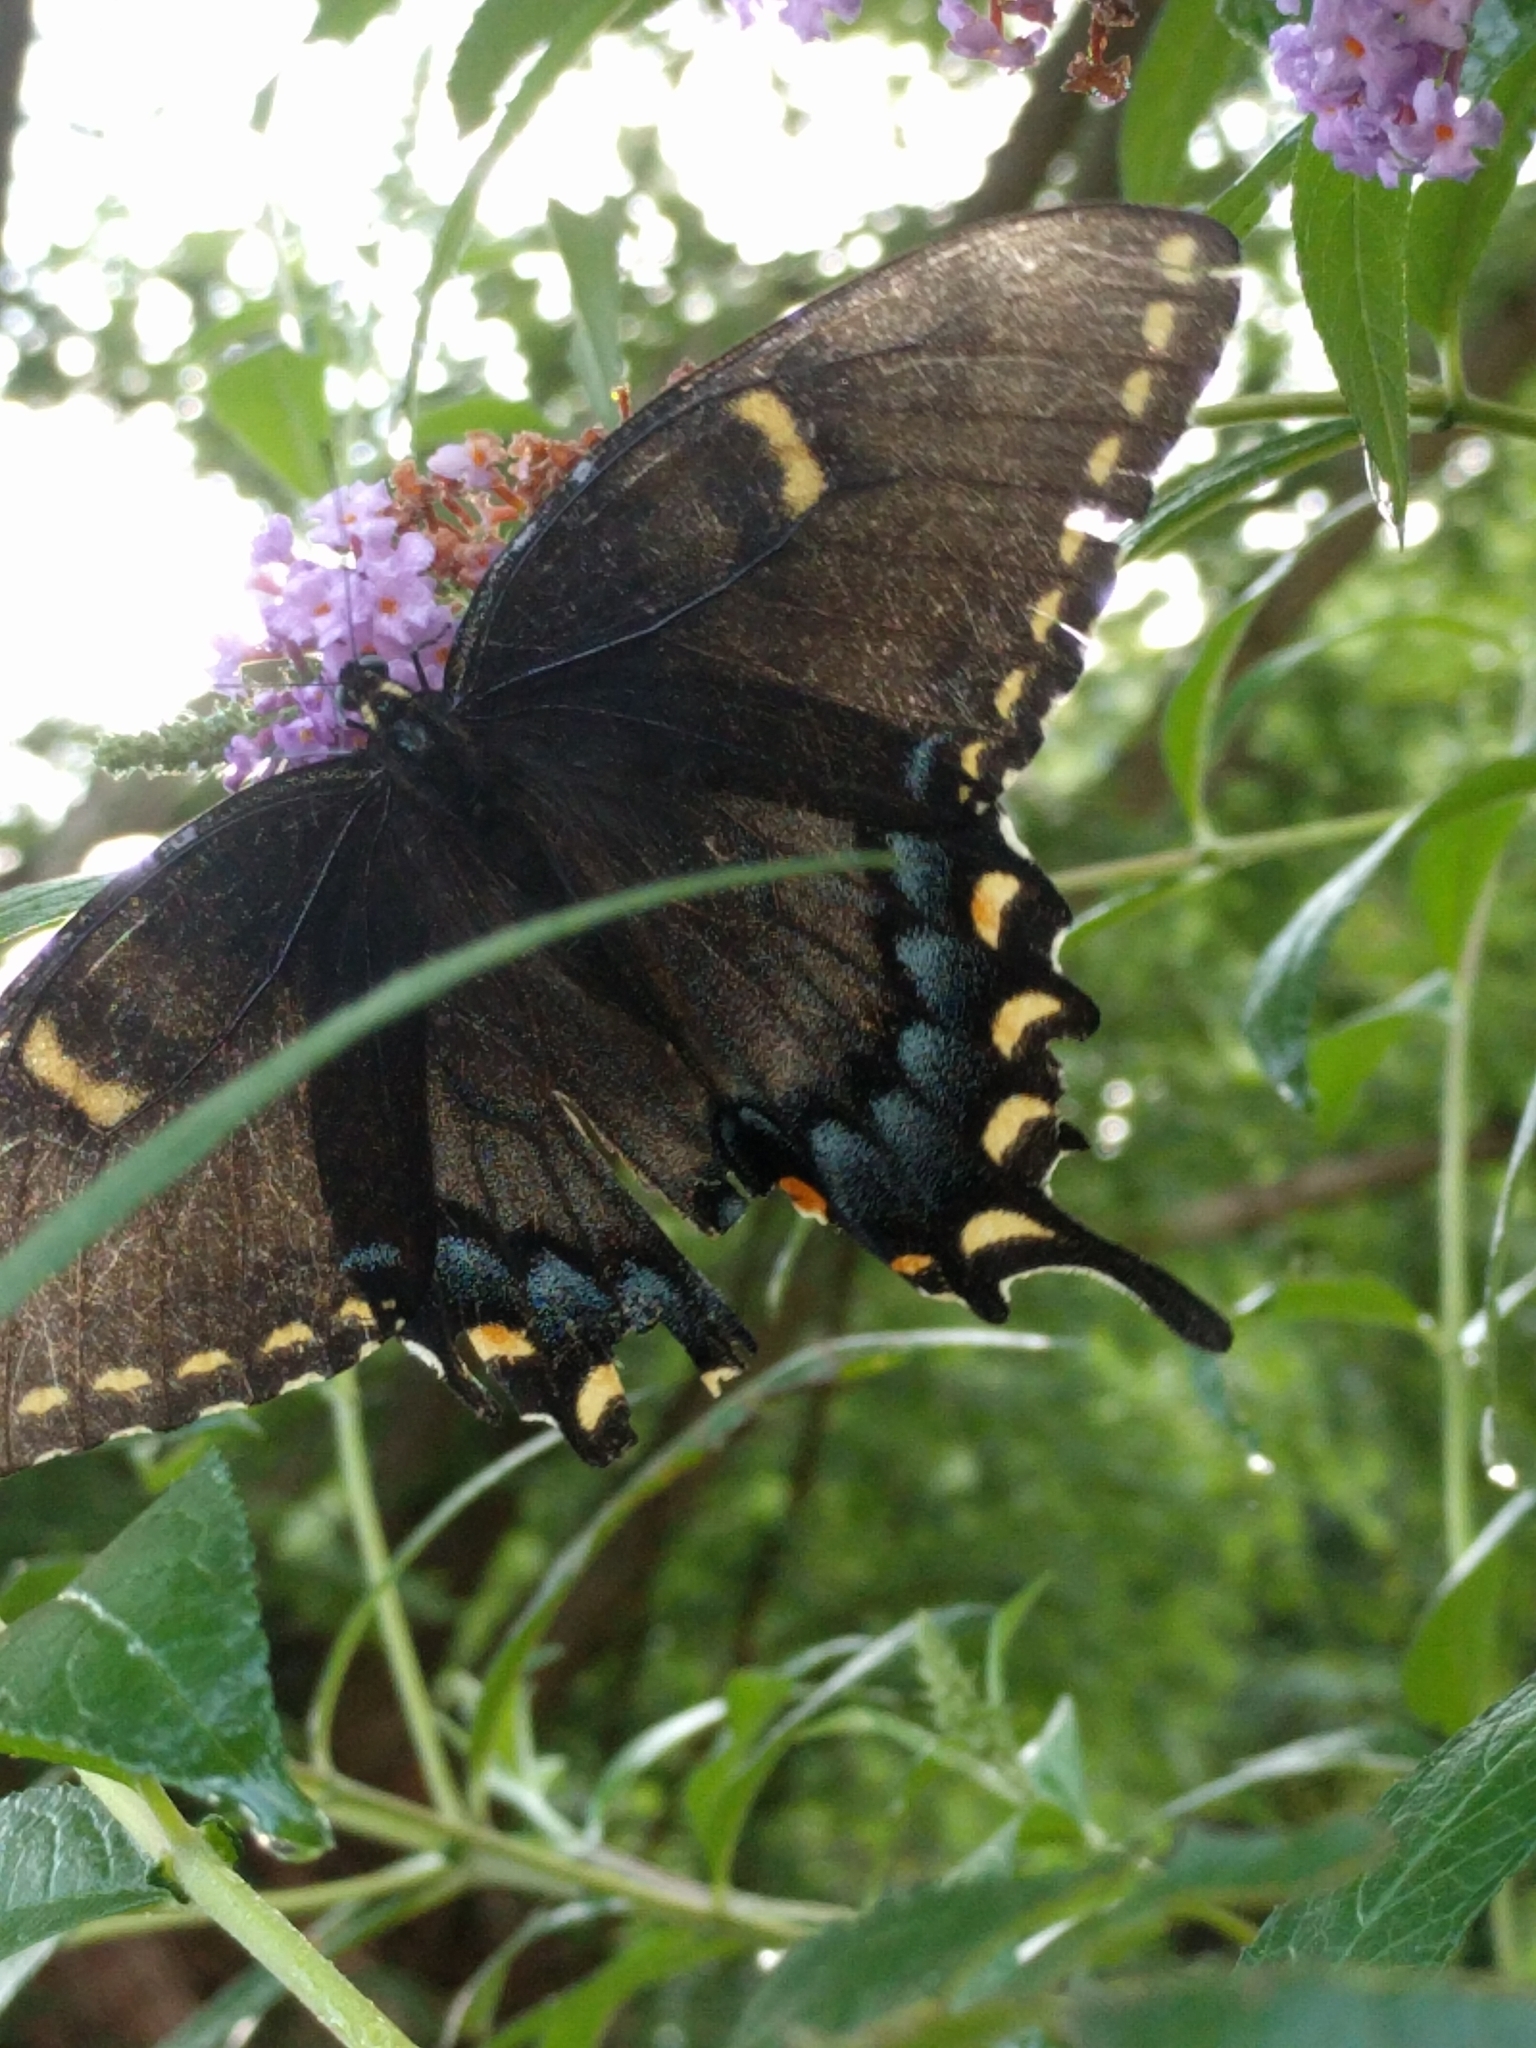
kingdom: Animalia
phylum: Arthropoda
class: Insecta
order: Lepidoptera
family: Papilionidae
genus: Papilio
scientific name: Papilio glaucus
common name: Tiger swallowtail
